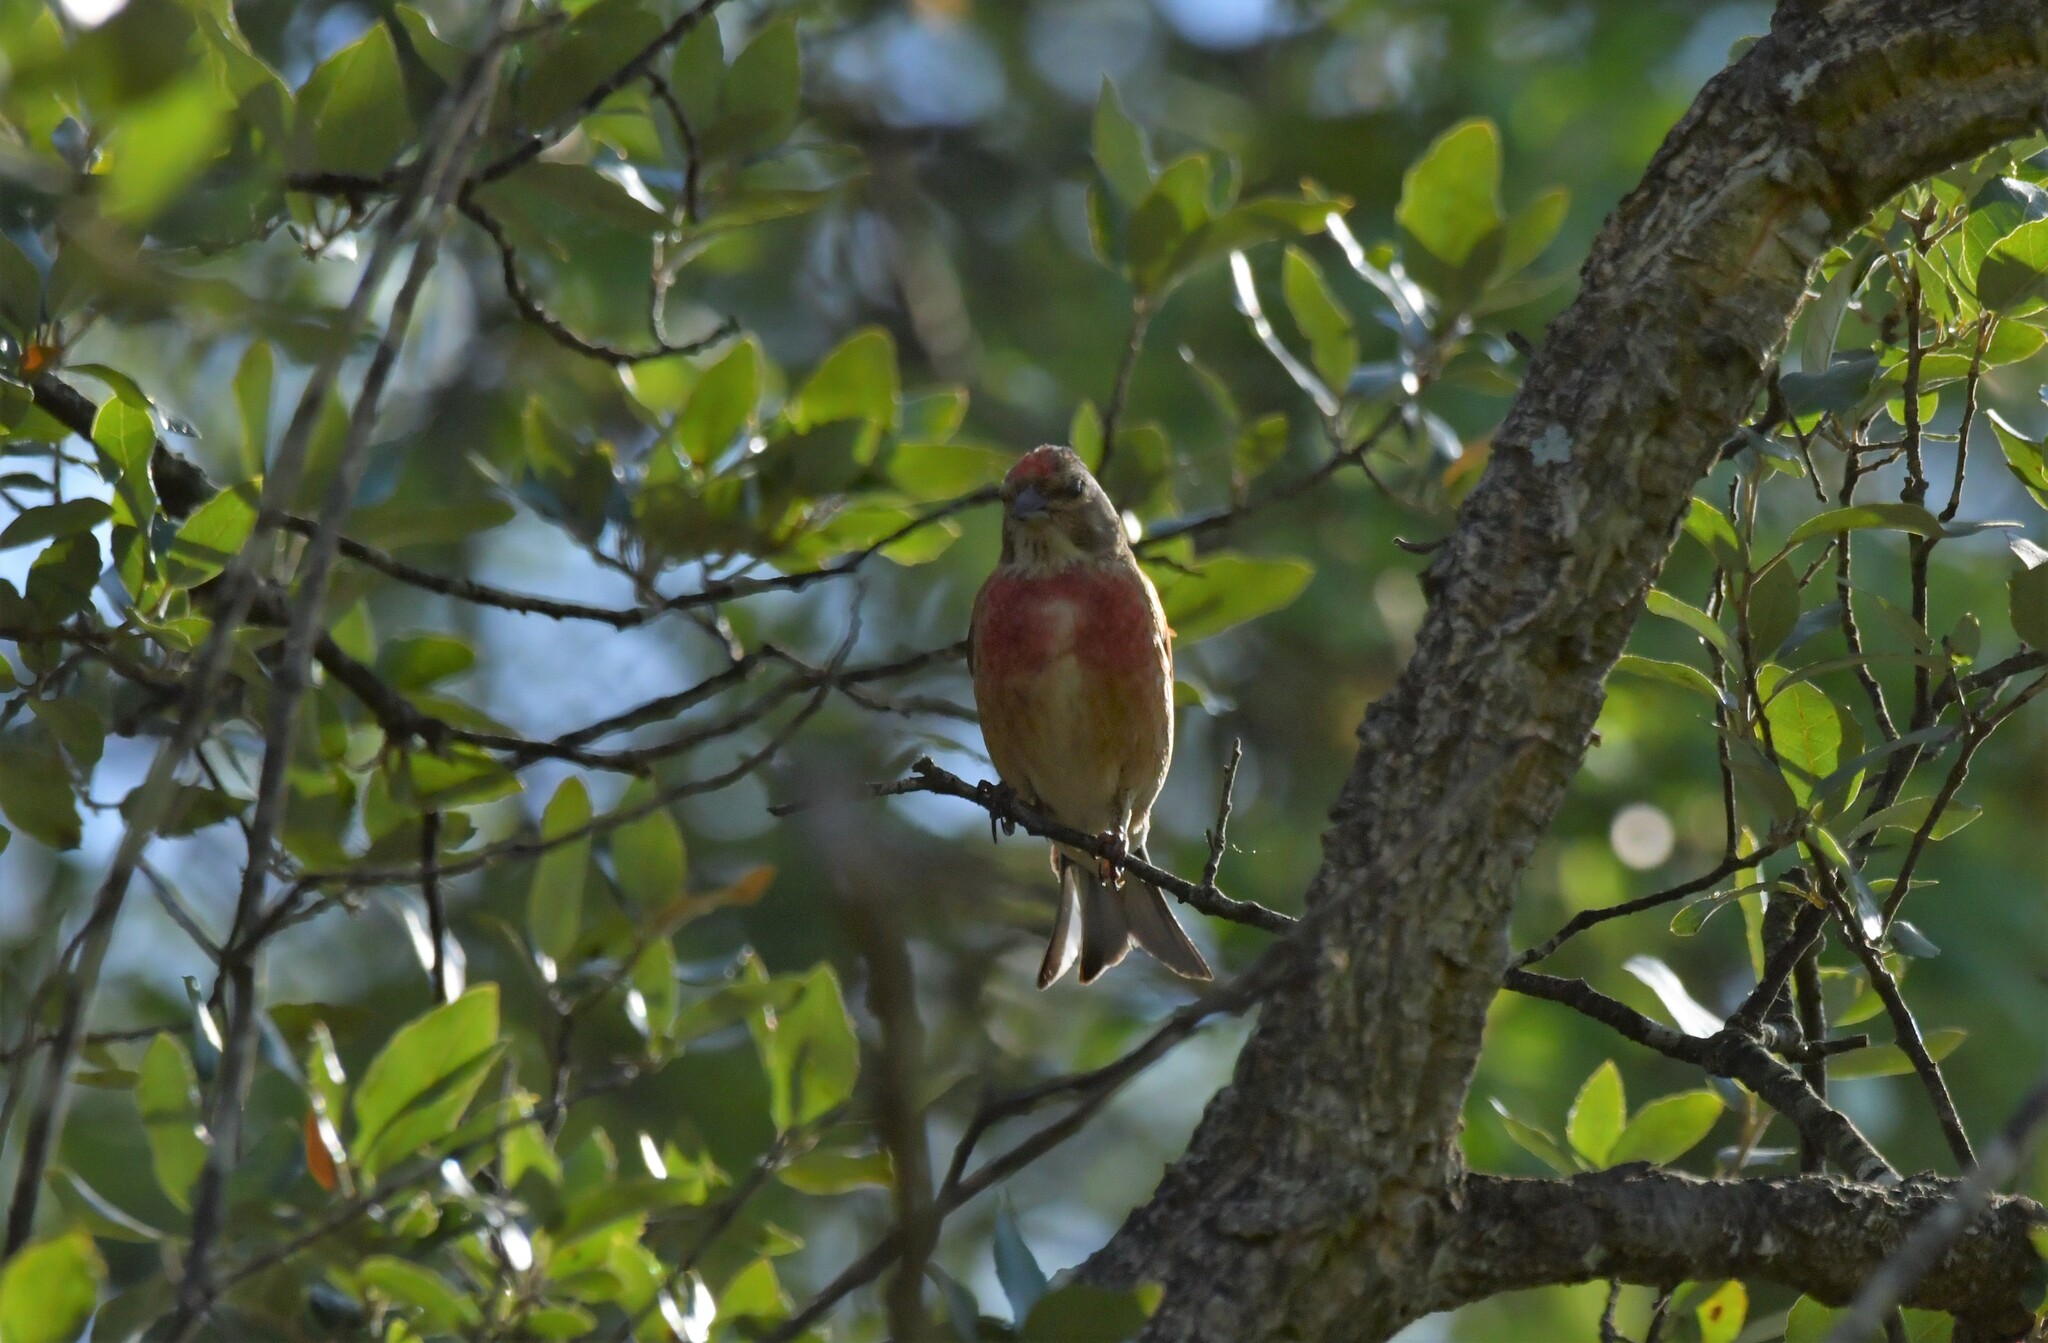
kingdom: Animalia
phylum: Chordata
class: Aves
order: Passeriformes
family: Fringillidae
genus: Linaria
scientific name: Linaria cannabina
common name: Common linnet
